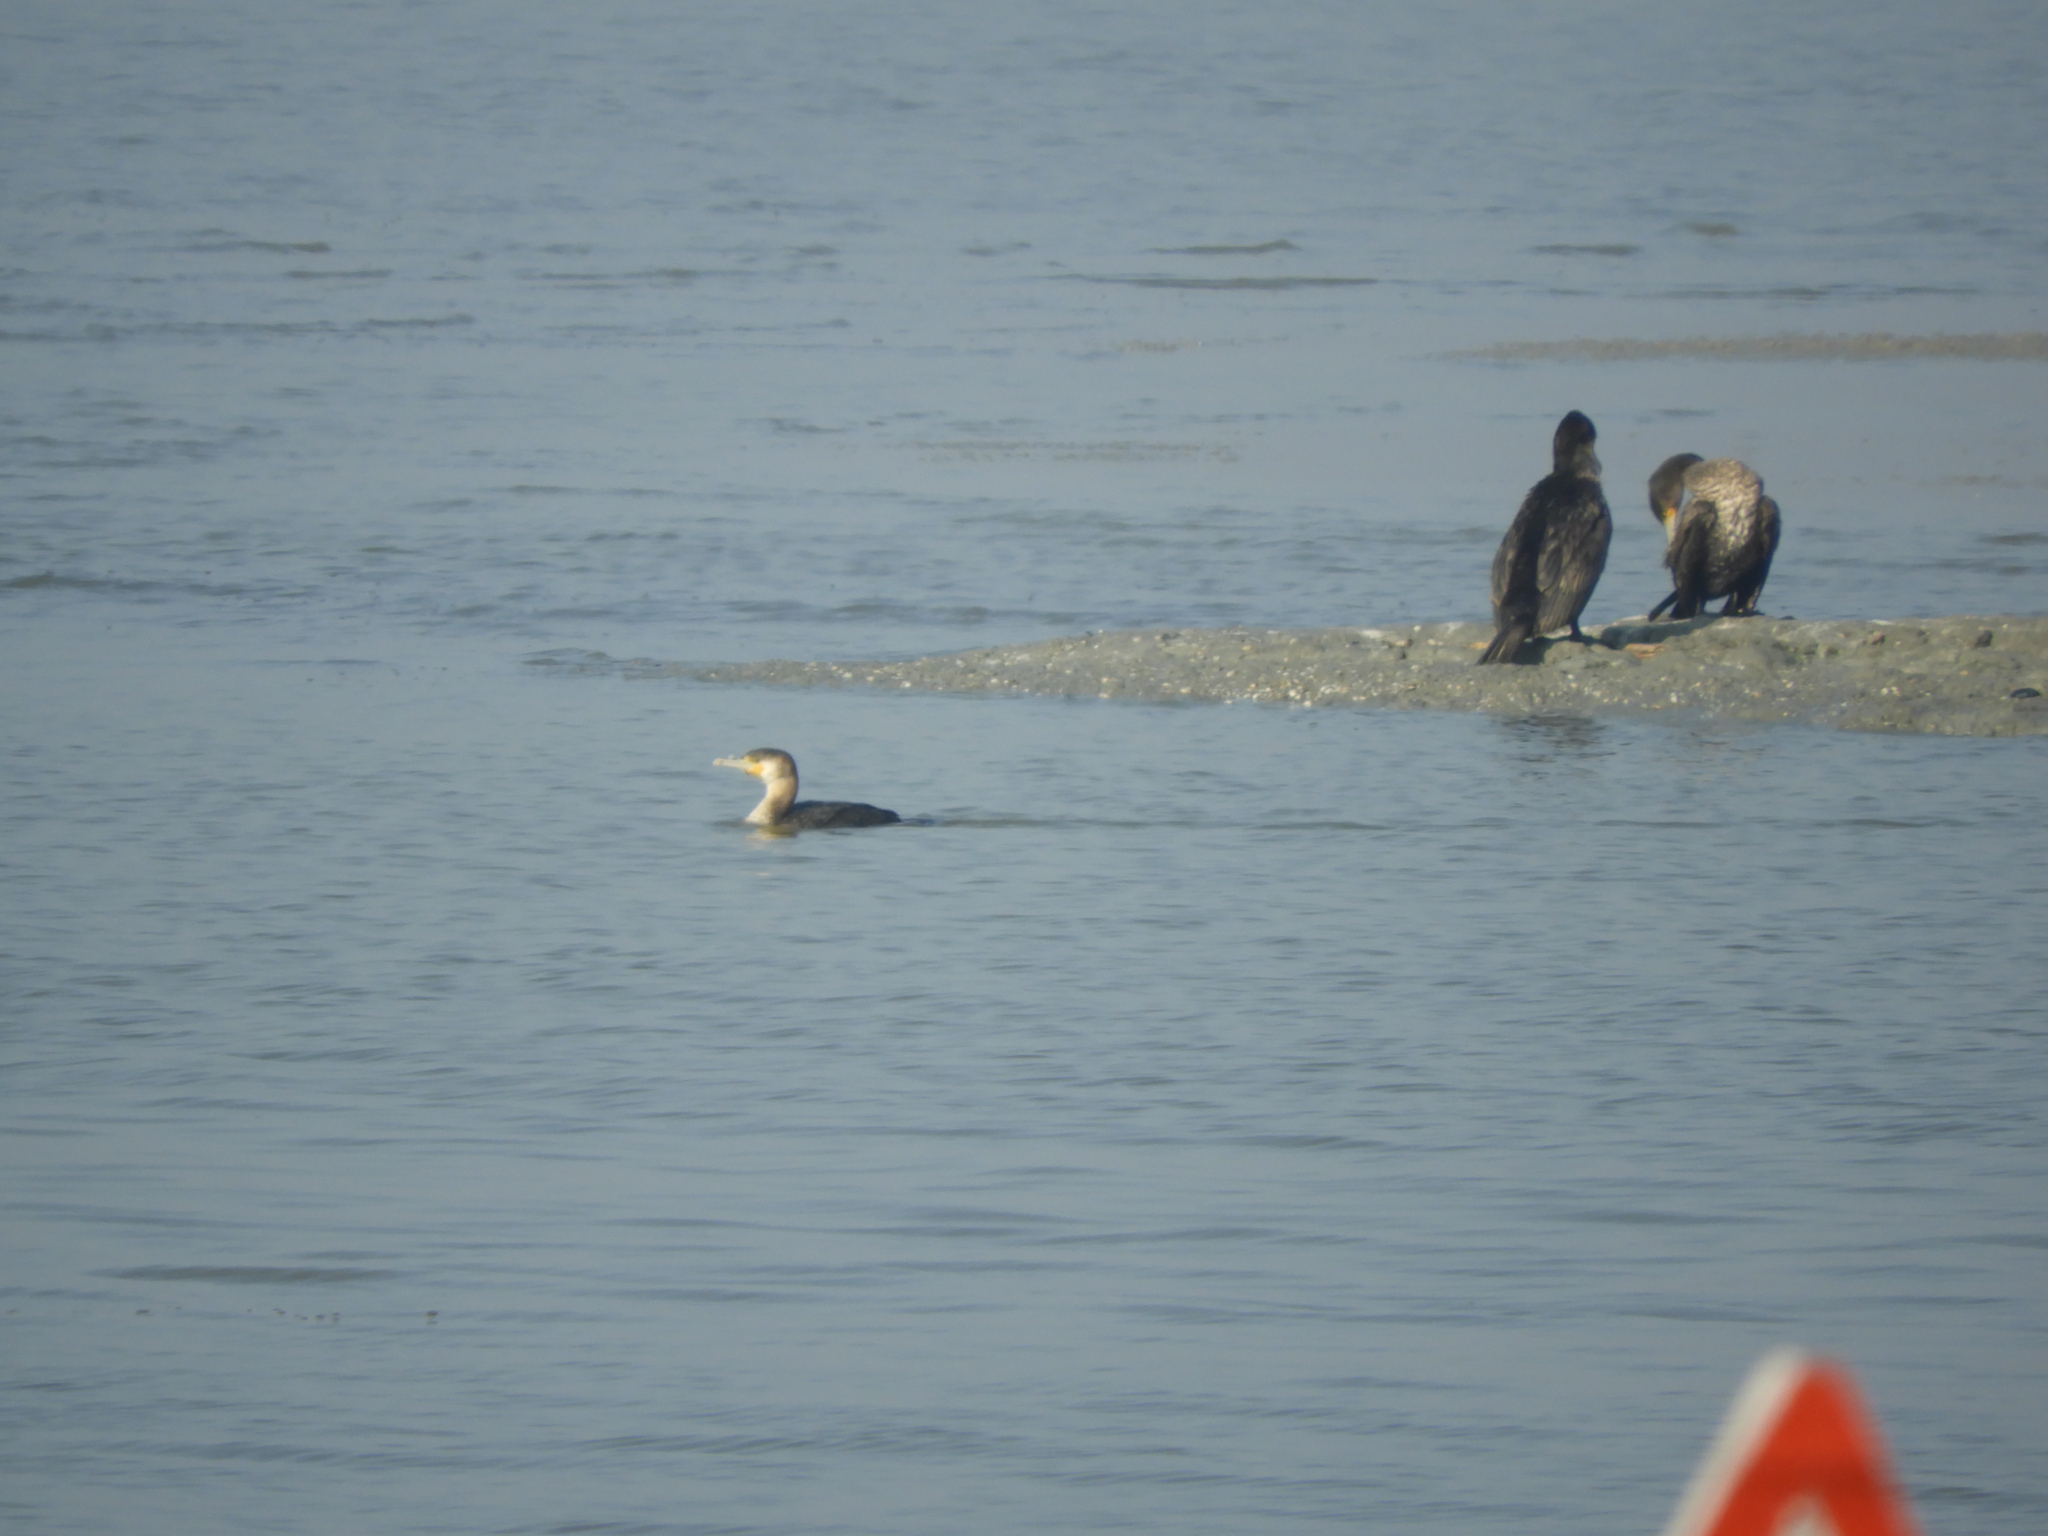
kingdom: Animalia
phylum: Chordata
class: Aves
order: Suliformes
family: Phalacrocoracidae
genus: Phalacrocorax
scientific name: Phalacrocorax carbo
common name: Great cormorant
